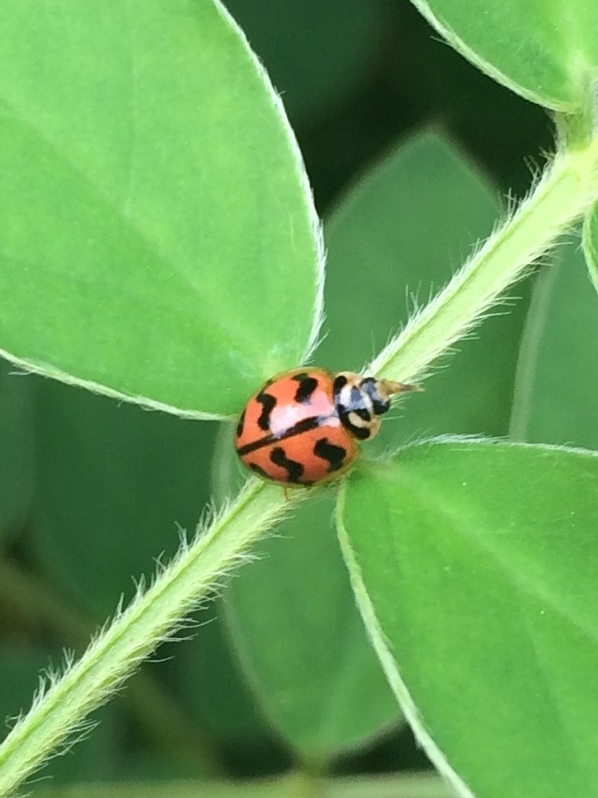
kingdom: Animalia
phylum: Arthropoda
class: Insecta
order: Coleoptera
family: Coccinellidae
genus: Cheilomenes
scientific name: Cheilomenes sexmaculata
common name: Ladybird beetle
